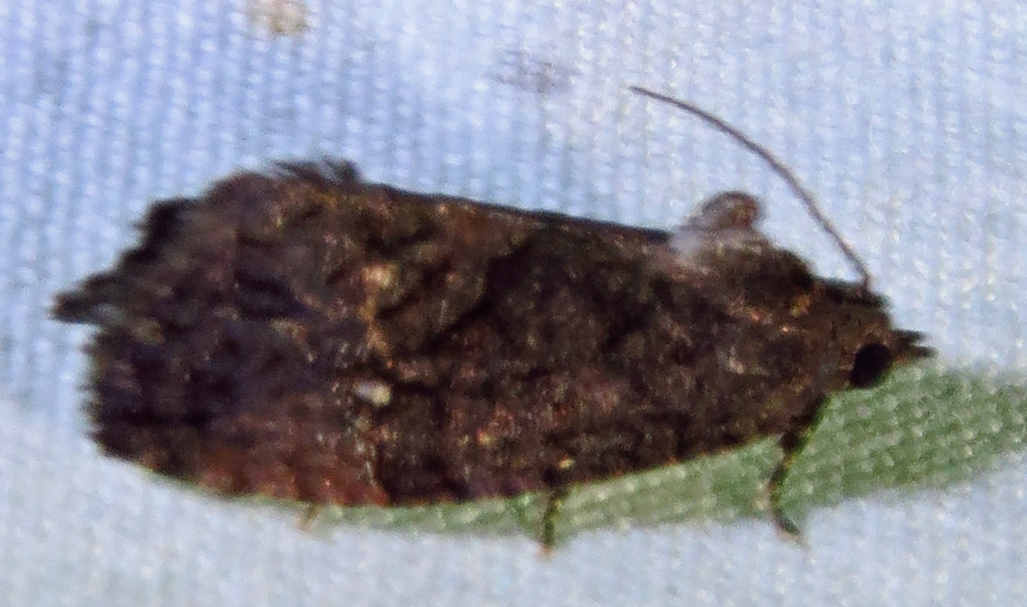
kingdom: Animalia
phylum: Arthropoda
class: Insecta
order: Lepidoptera
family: Tortricidae
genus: Gymnandrosoma
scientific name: Gymnandrosoma punctidiscanum
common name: Dotted ecdytolopha moth
